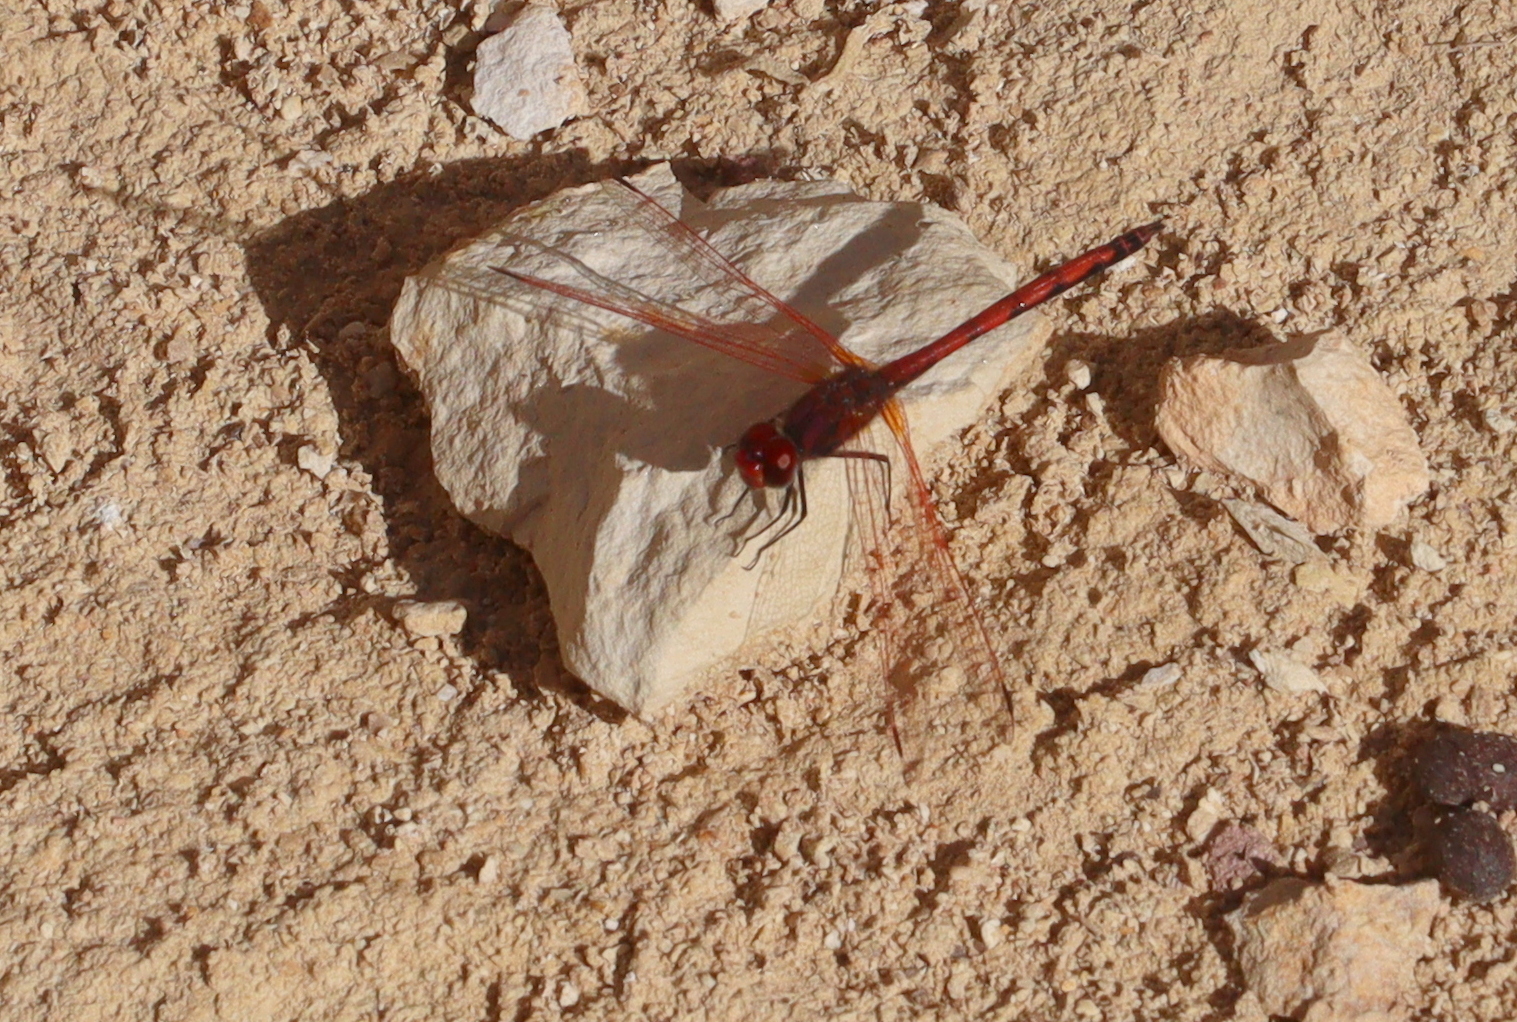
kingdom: Animalia
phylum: Arthropoda
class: Insecta
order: Odonata
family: Libellulidae
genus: Trithemis
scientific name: Trithemis arteriosa
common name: Red-veined dropwing
